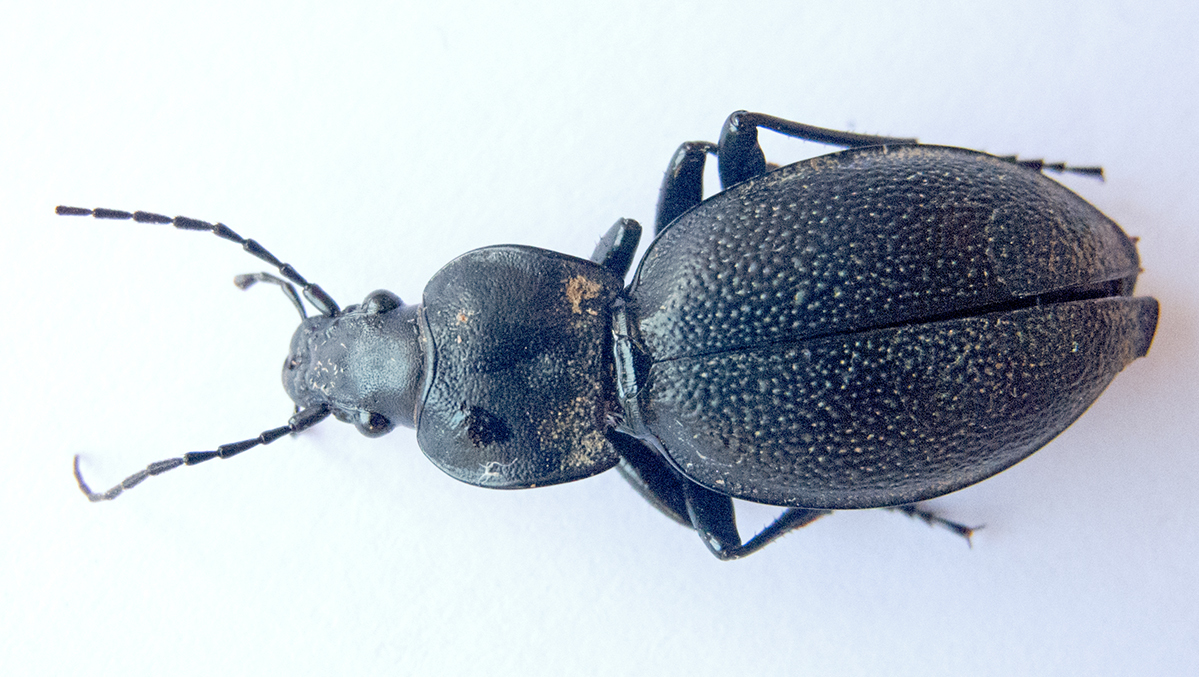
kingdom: Animalia
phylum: Arthropoda
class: Insecta
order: Coleoptera
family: Carabidae
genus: Carabus
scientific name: Carabus coriaceus
